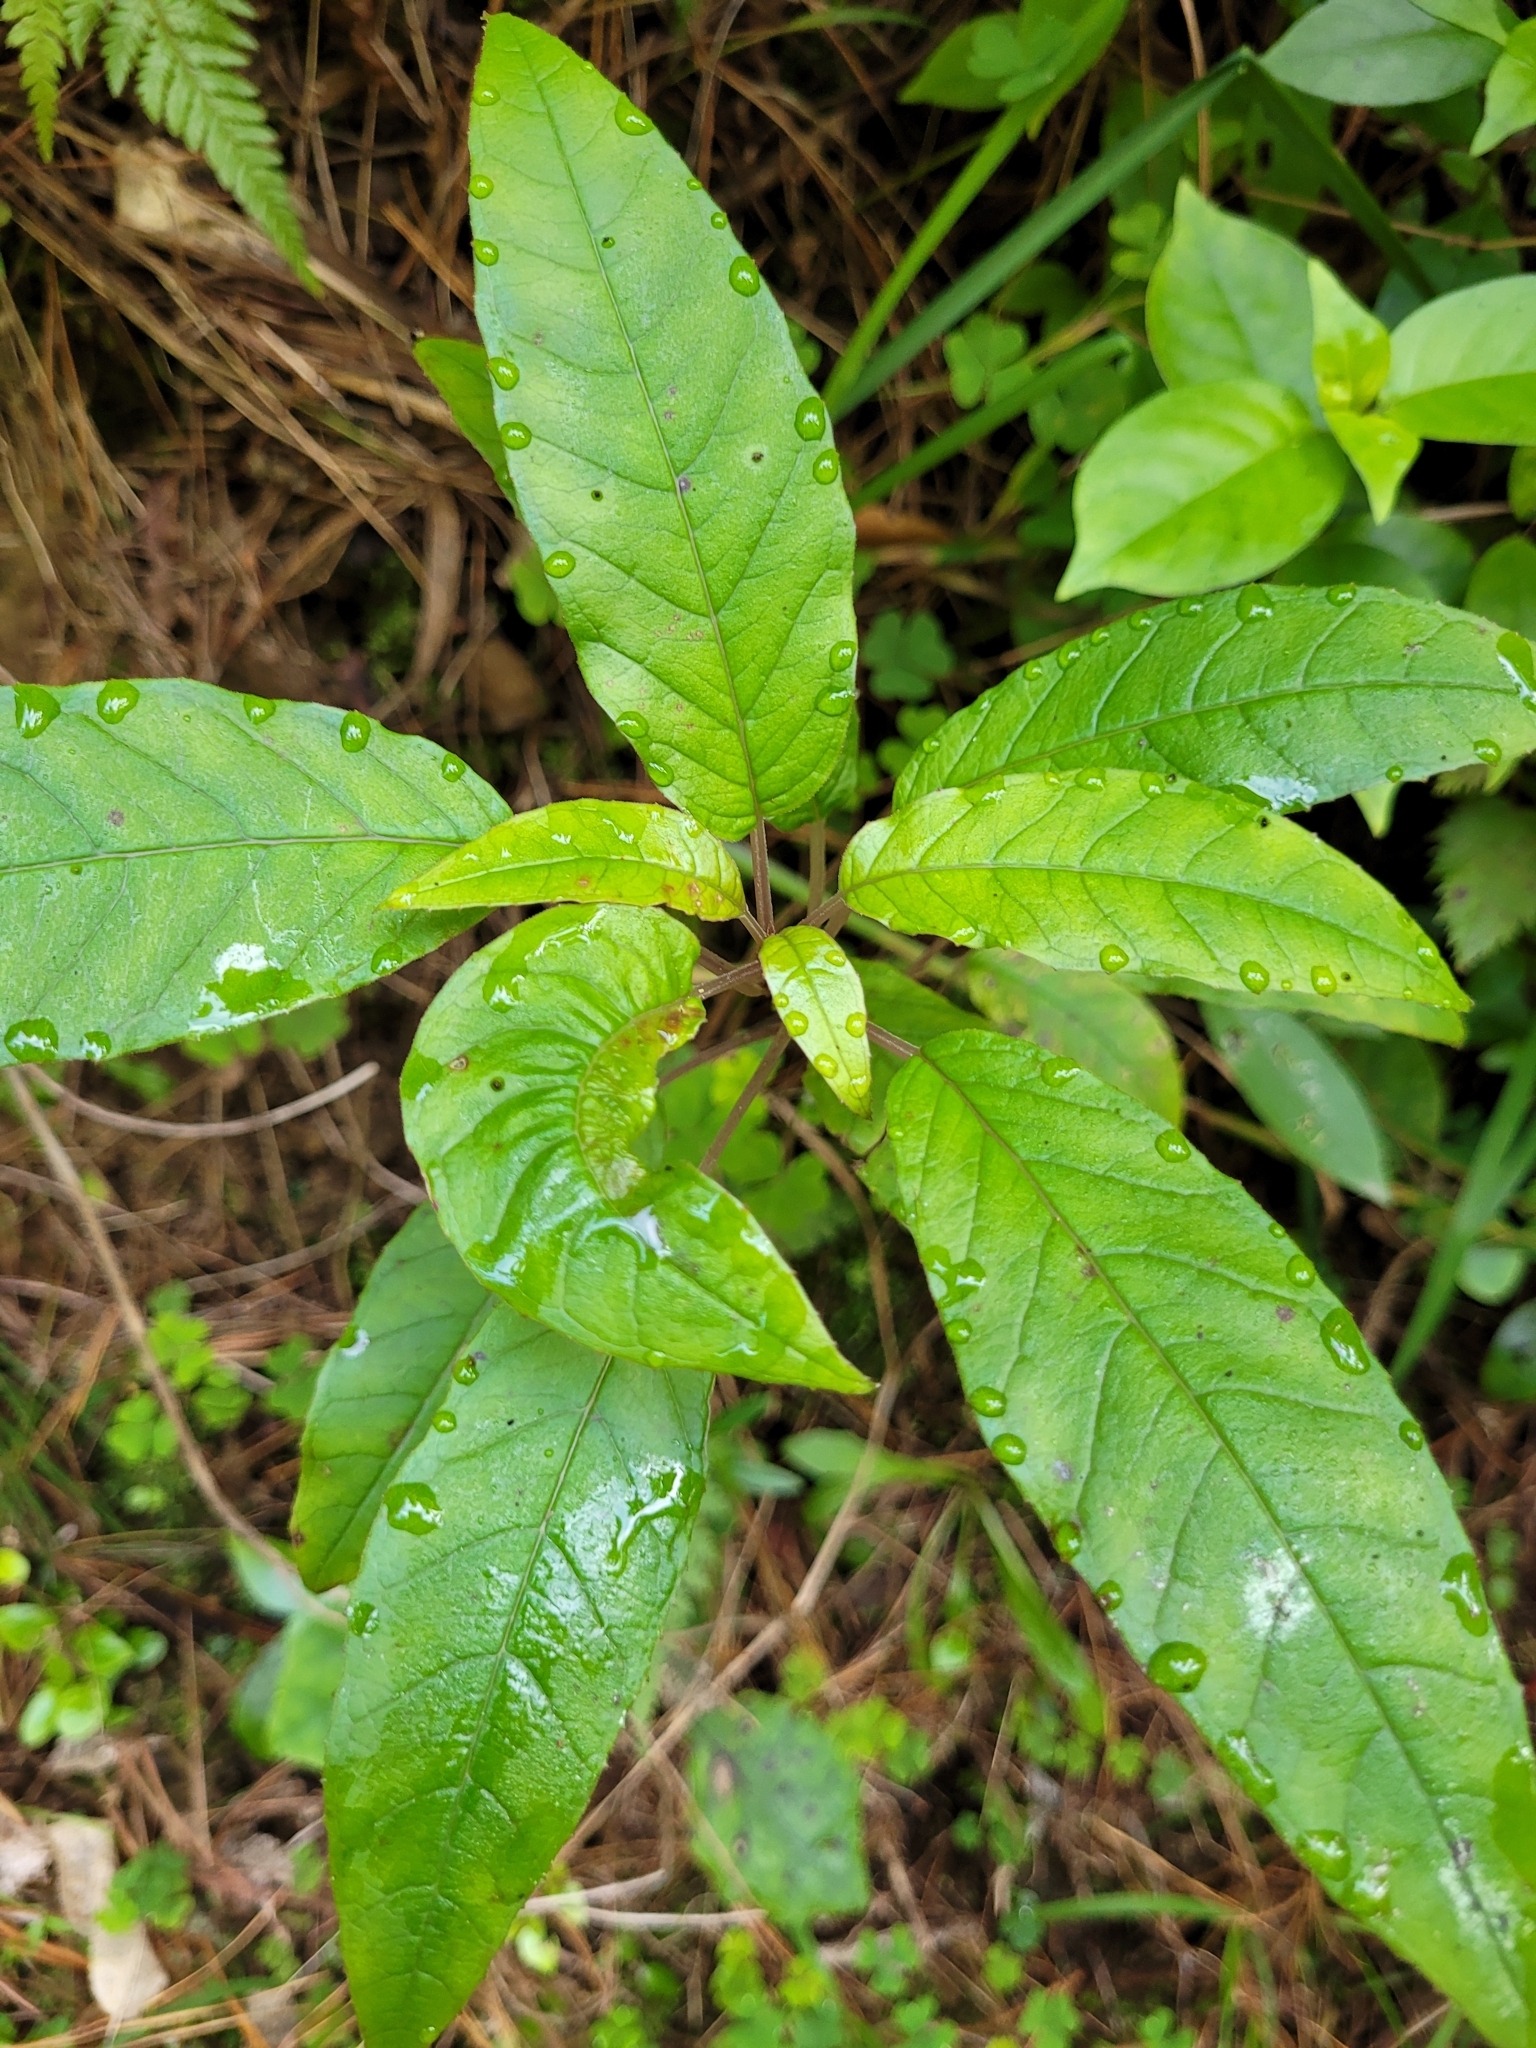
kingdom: Plantae
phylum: Tracheophyta
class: Magnoliopsida
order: Myrtales
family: Onagraceae
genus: Fuchsia
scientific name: Fuchsia excorticata
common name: Tree fuchsia
